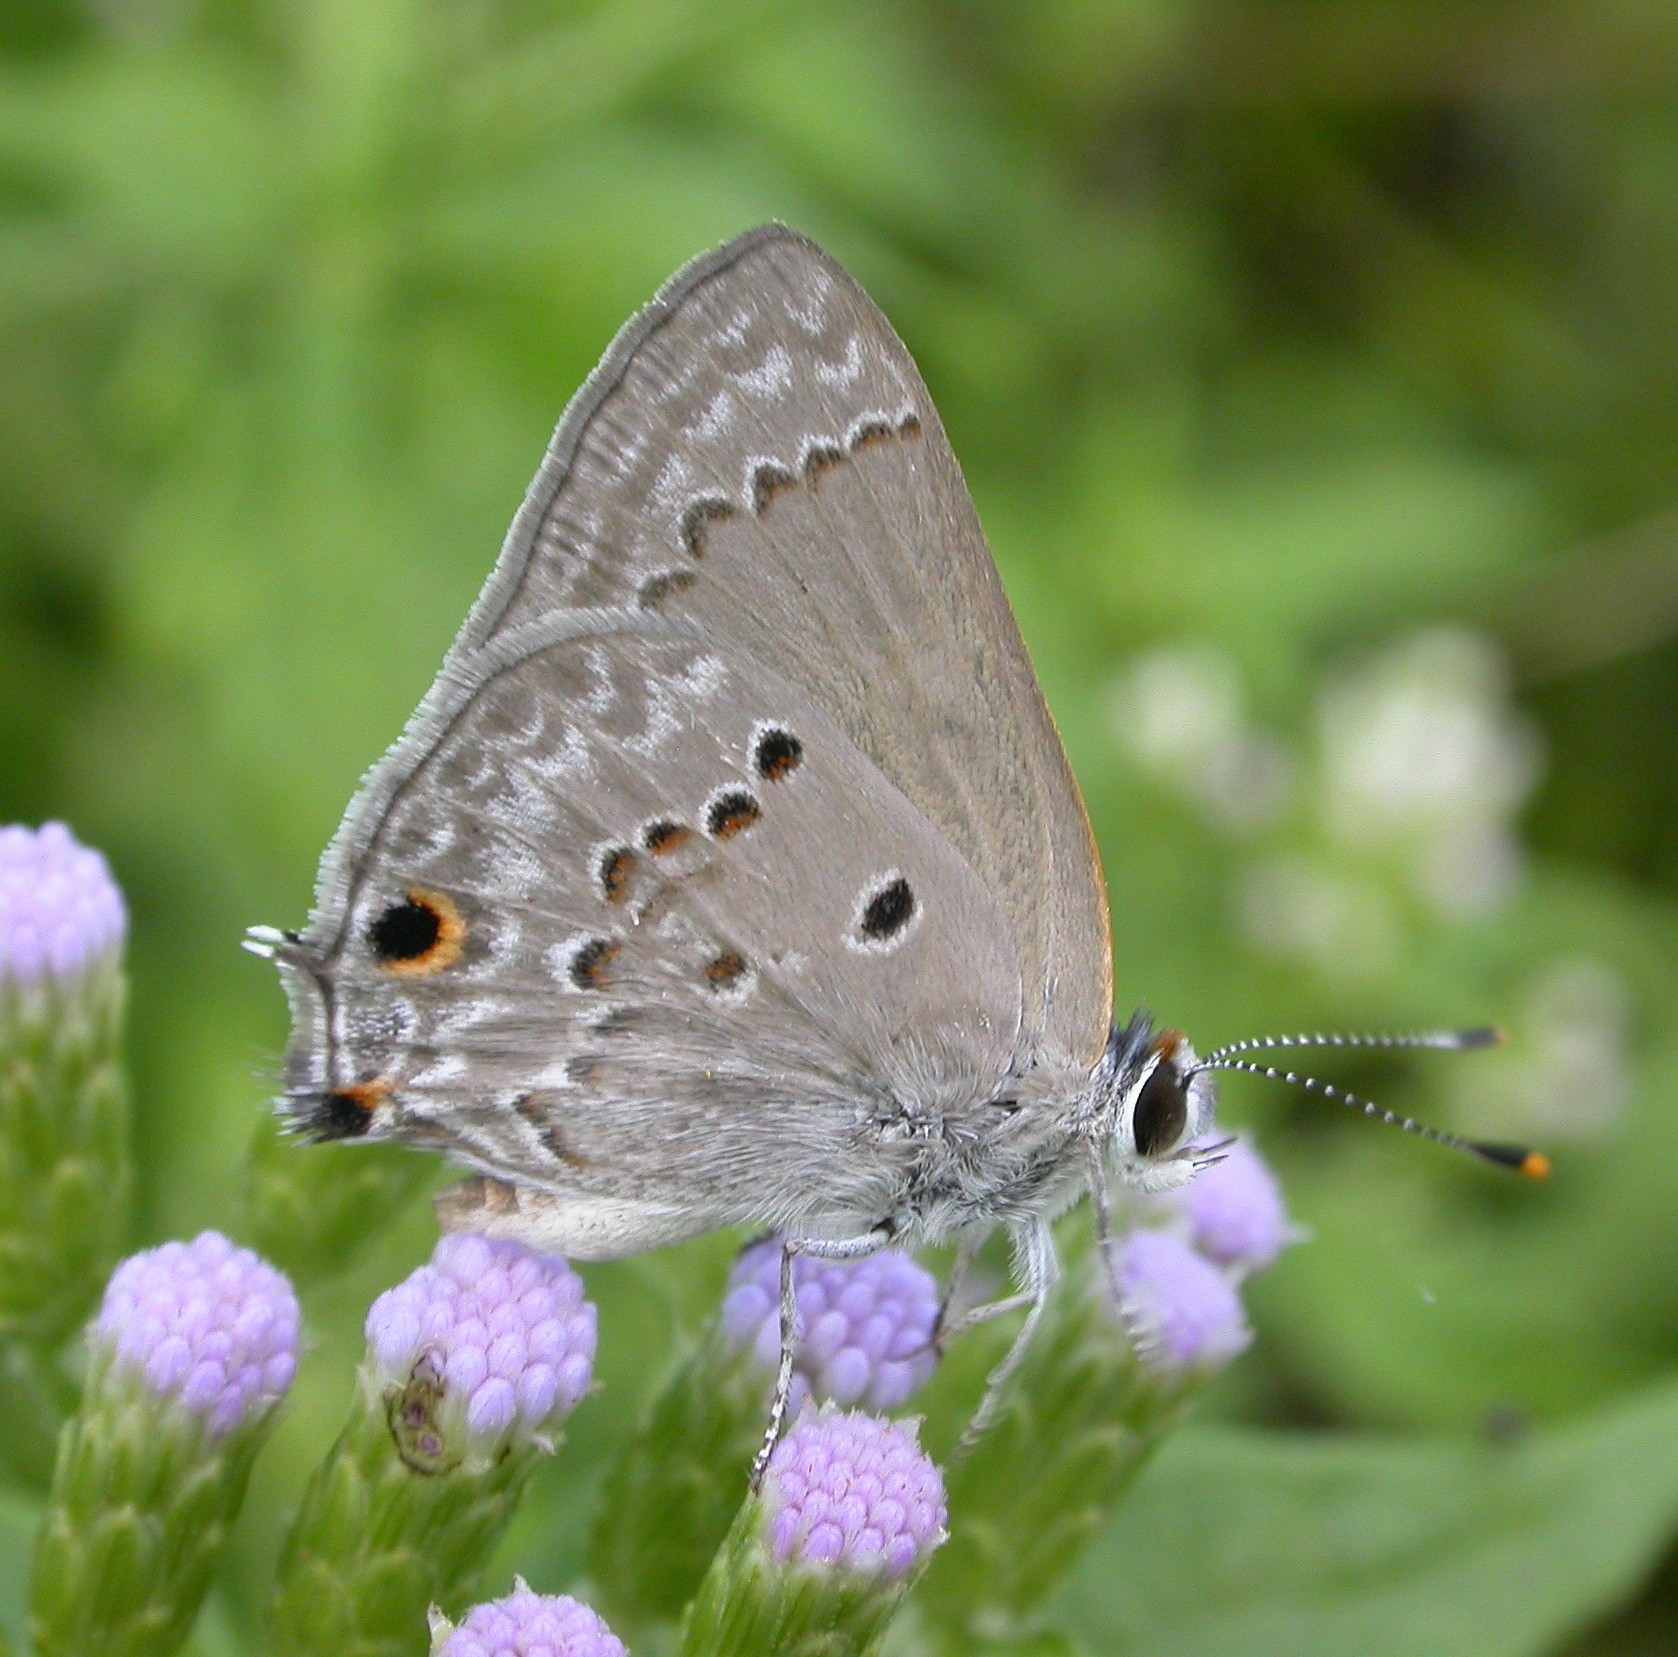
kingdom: Animalia
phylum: Arthropoda
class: Insecta
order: Lepidoptera
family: Lycaenidae
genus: Callicista
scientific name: Callicista columella
